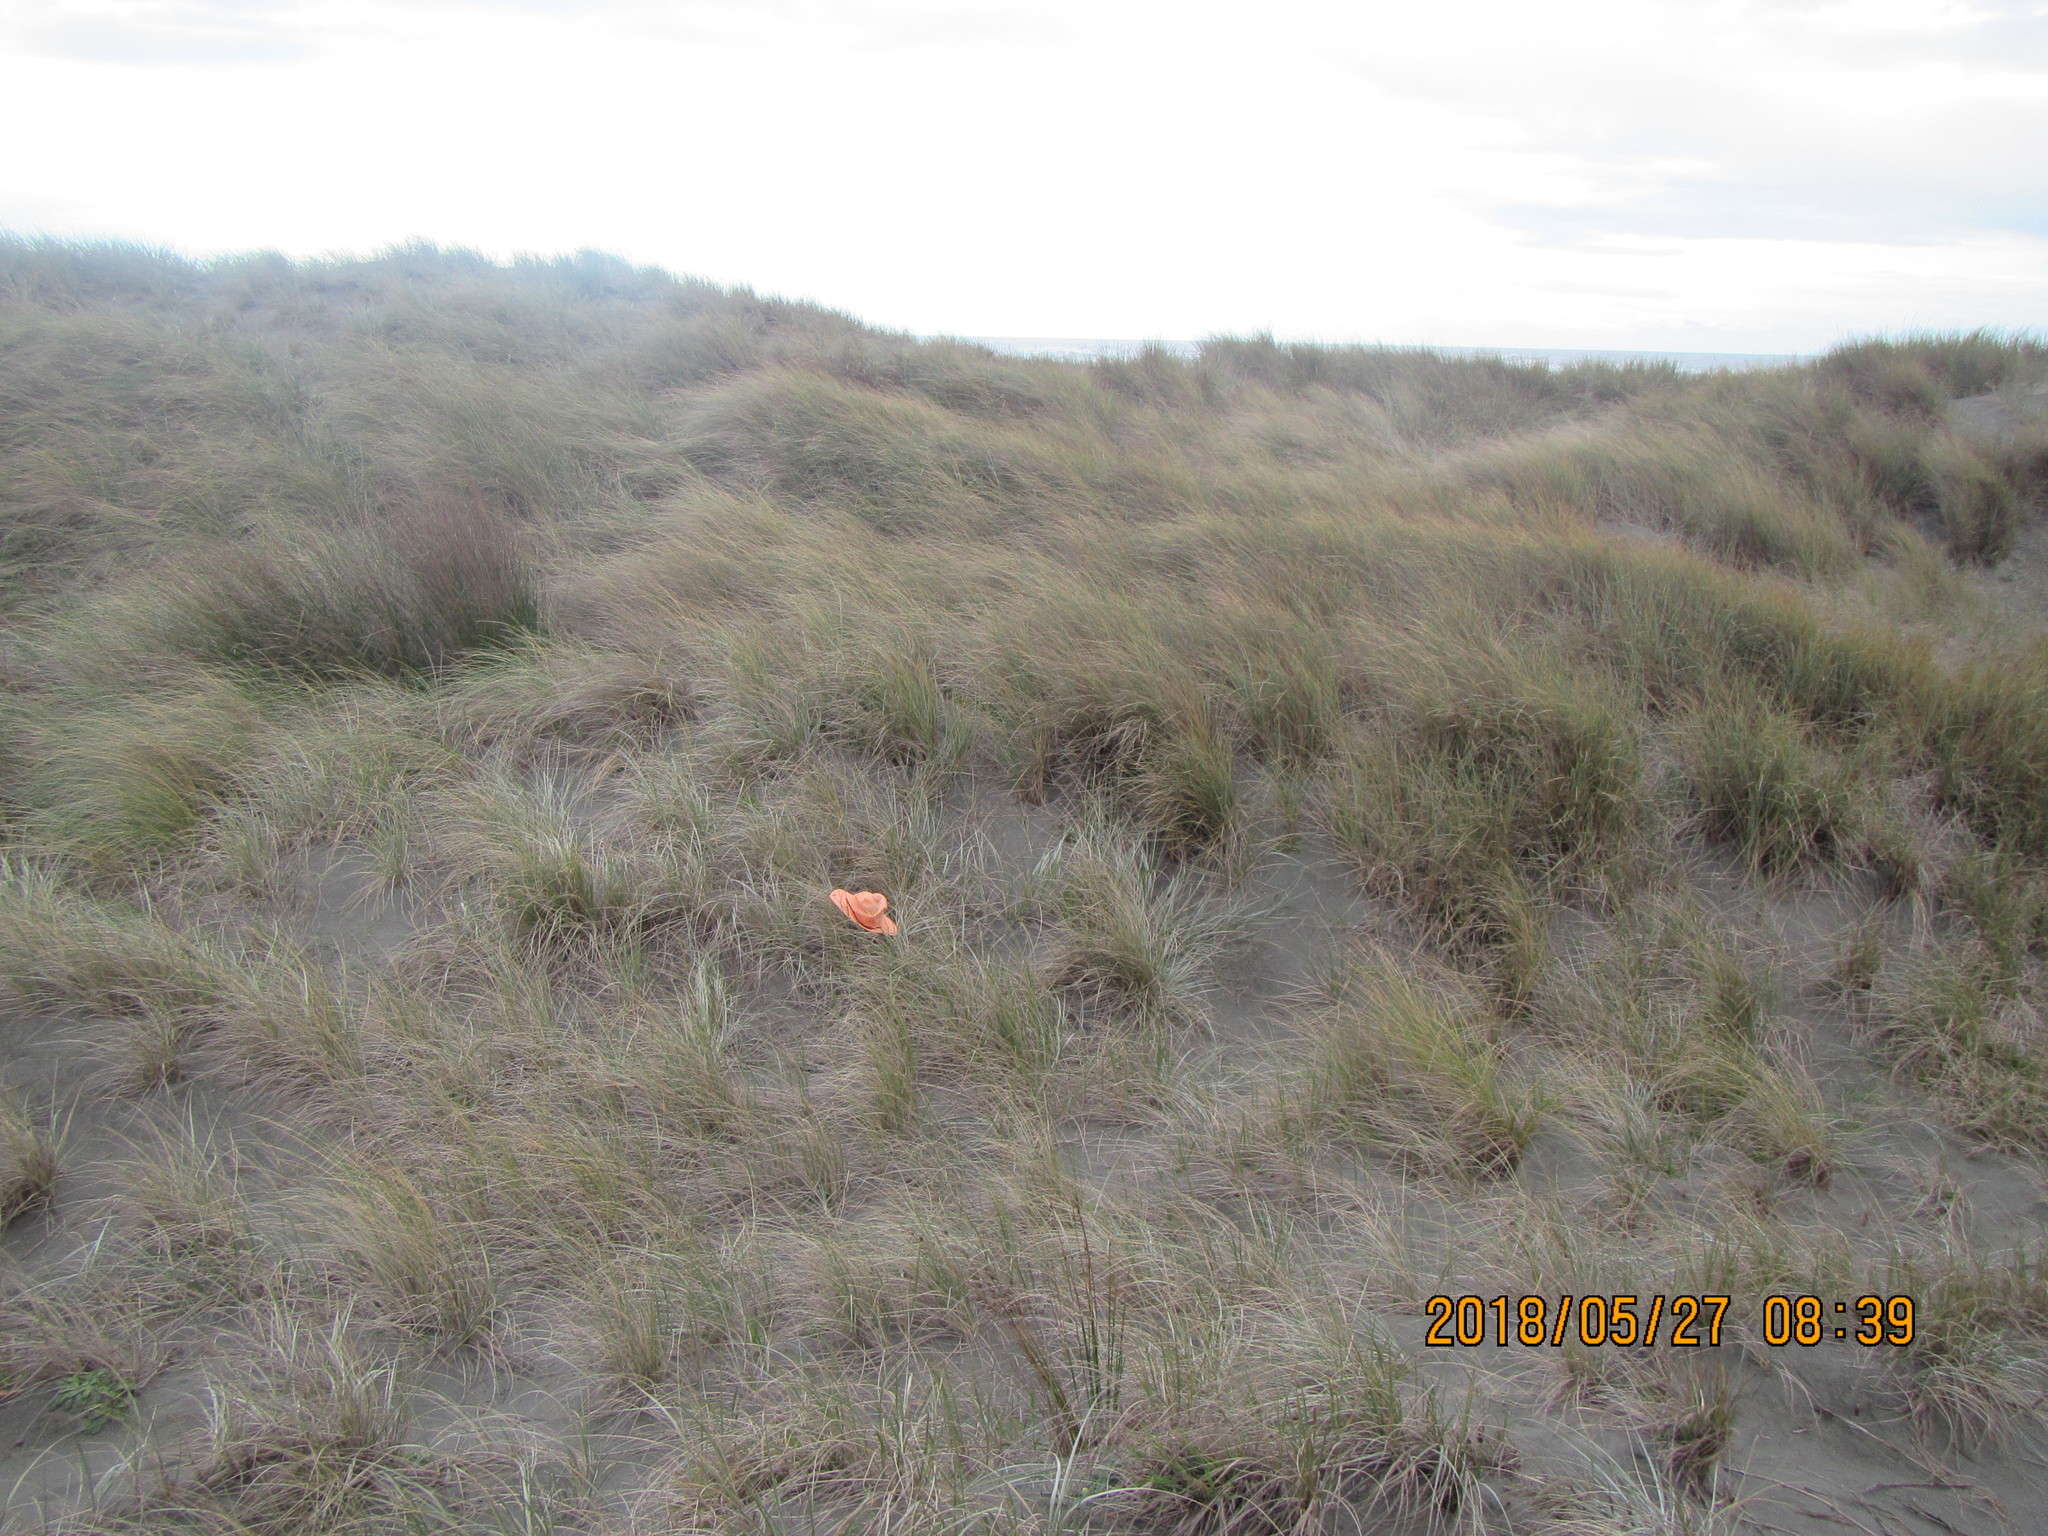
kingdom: Animalia
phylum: Arthropoda
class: Arachnida
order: Araneae
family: Thomisidae
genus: Sidymella
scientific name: Sidymella trapezia
